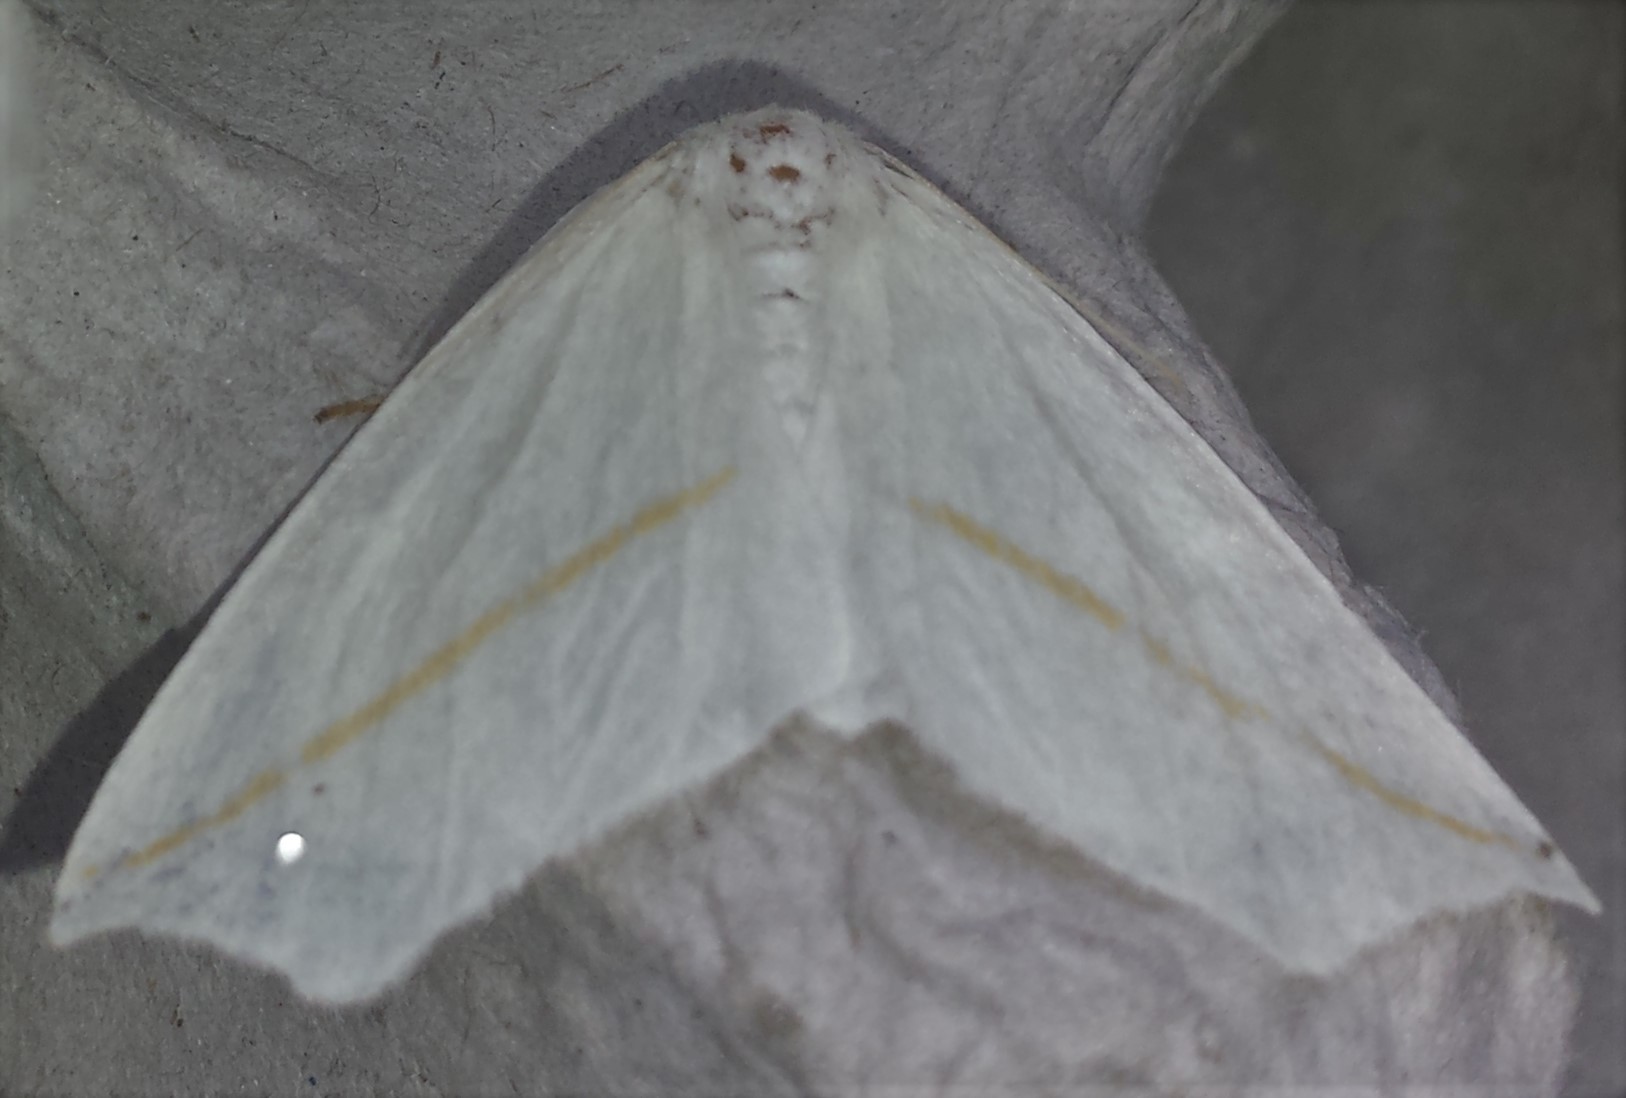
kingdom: Animalia
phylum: Arthropoda
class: Insecta
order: Lepidoptera
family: Geometridae
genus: Tetracis
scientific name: Tetracis cachexiata
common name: White slant-line
